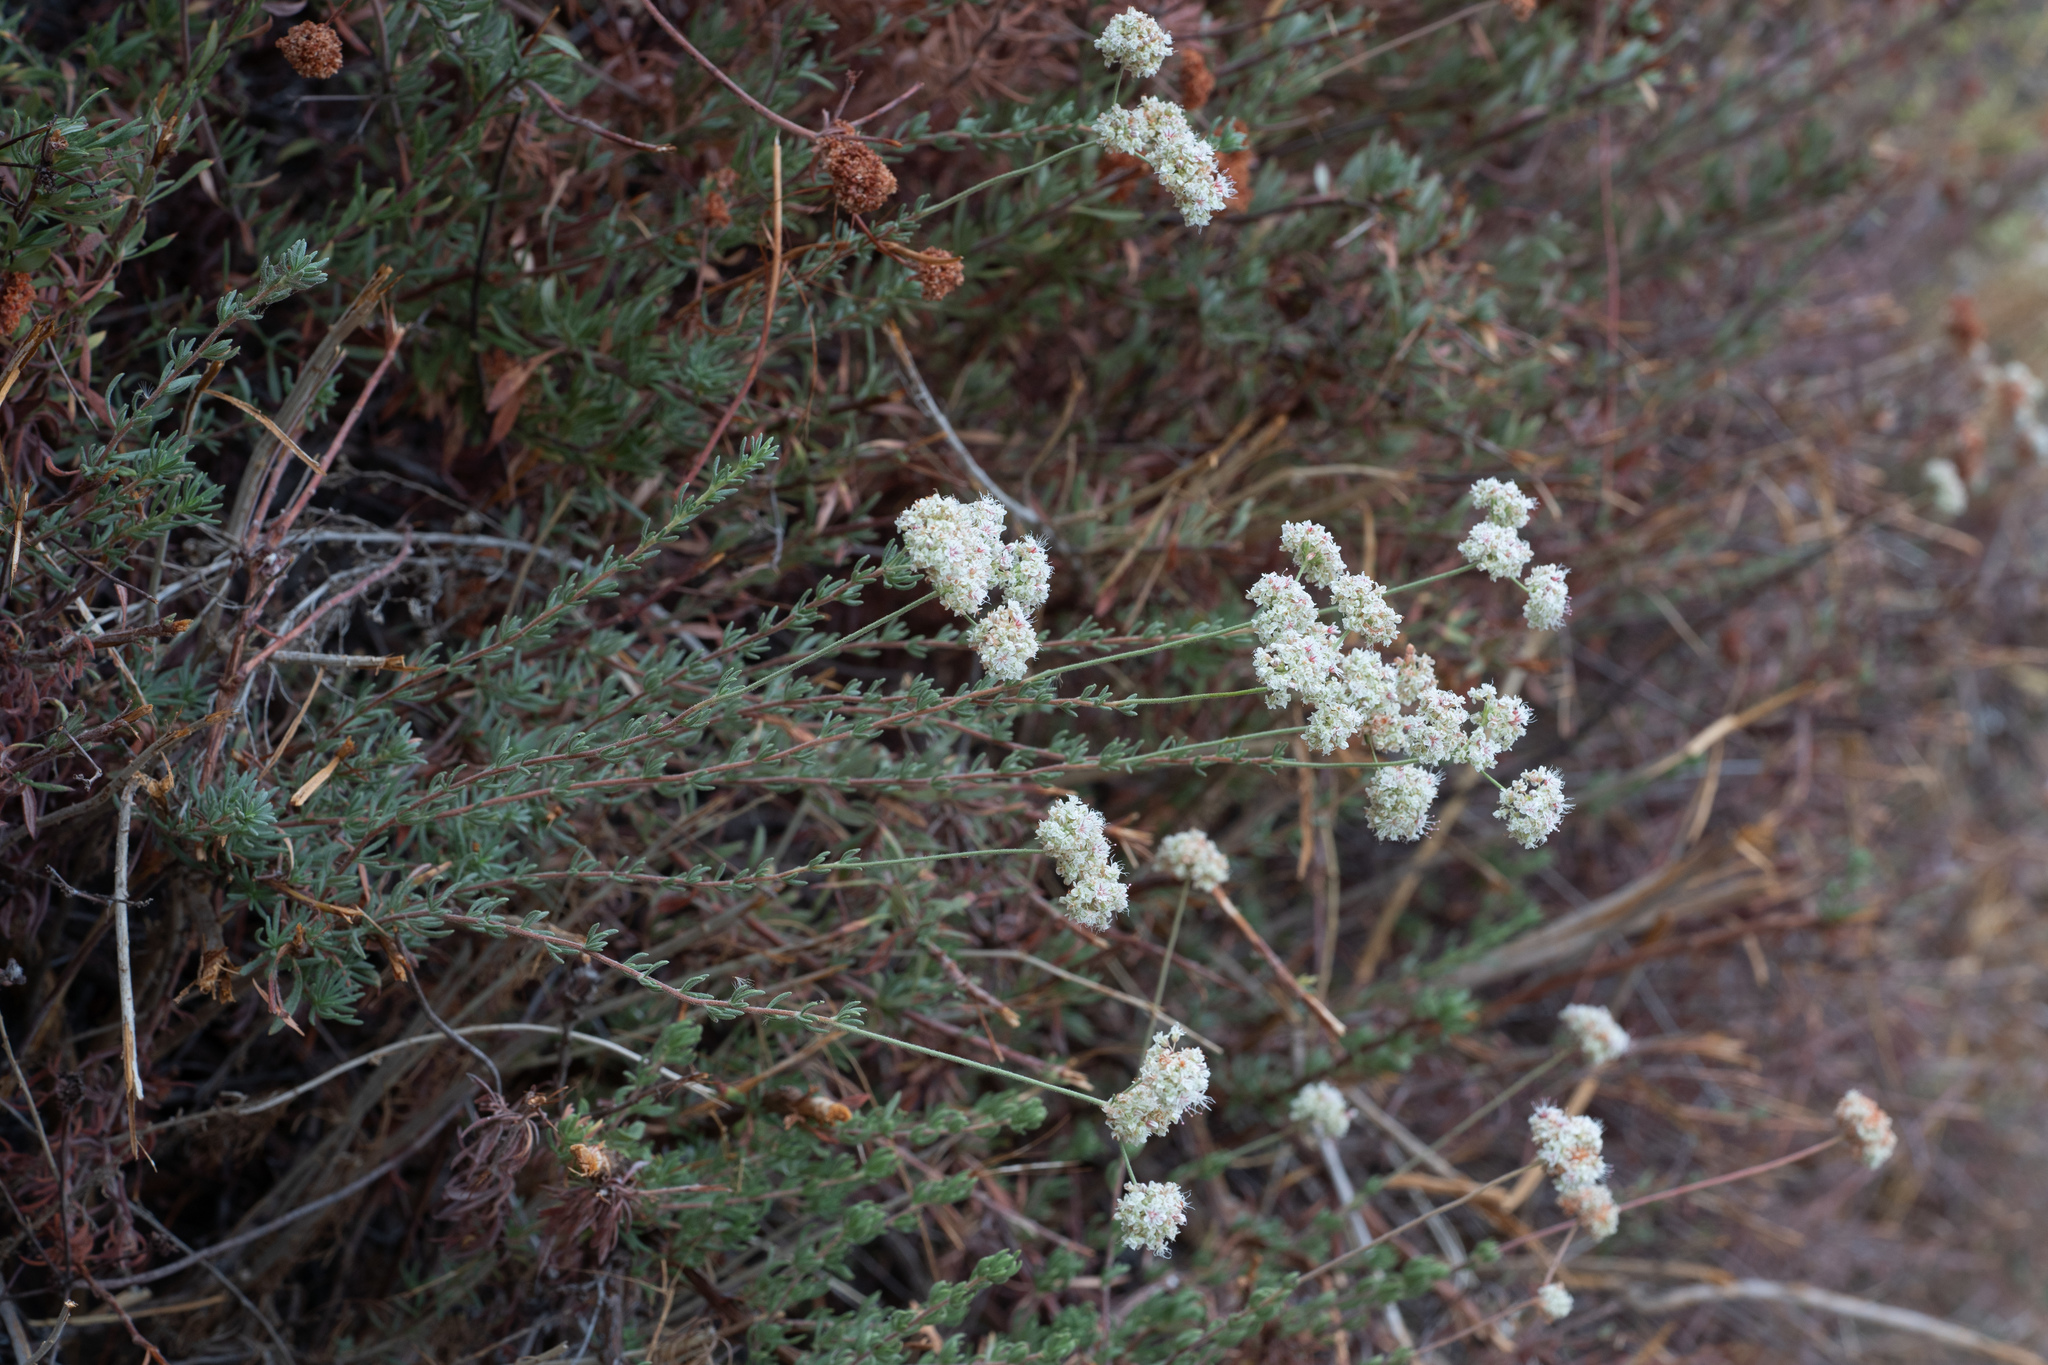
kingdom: Plantae
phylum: Tracheophyta
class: Magnoliopsida
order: Caryophyllales
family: Polygonaceae
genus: Eriogonum
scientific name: Eriogonum fasciculatum
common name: California wild buckwheat
